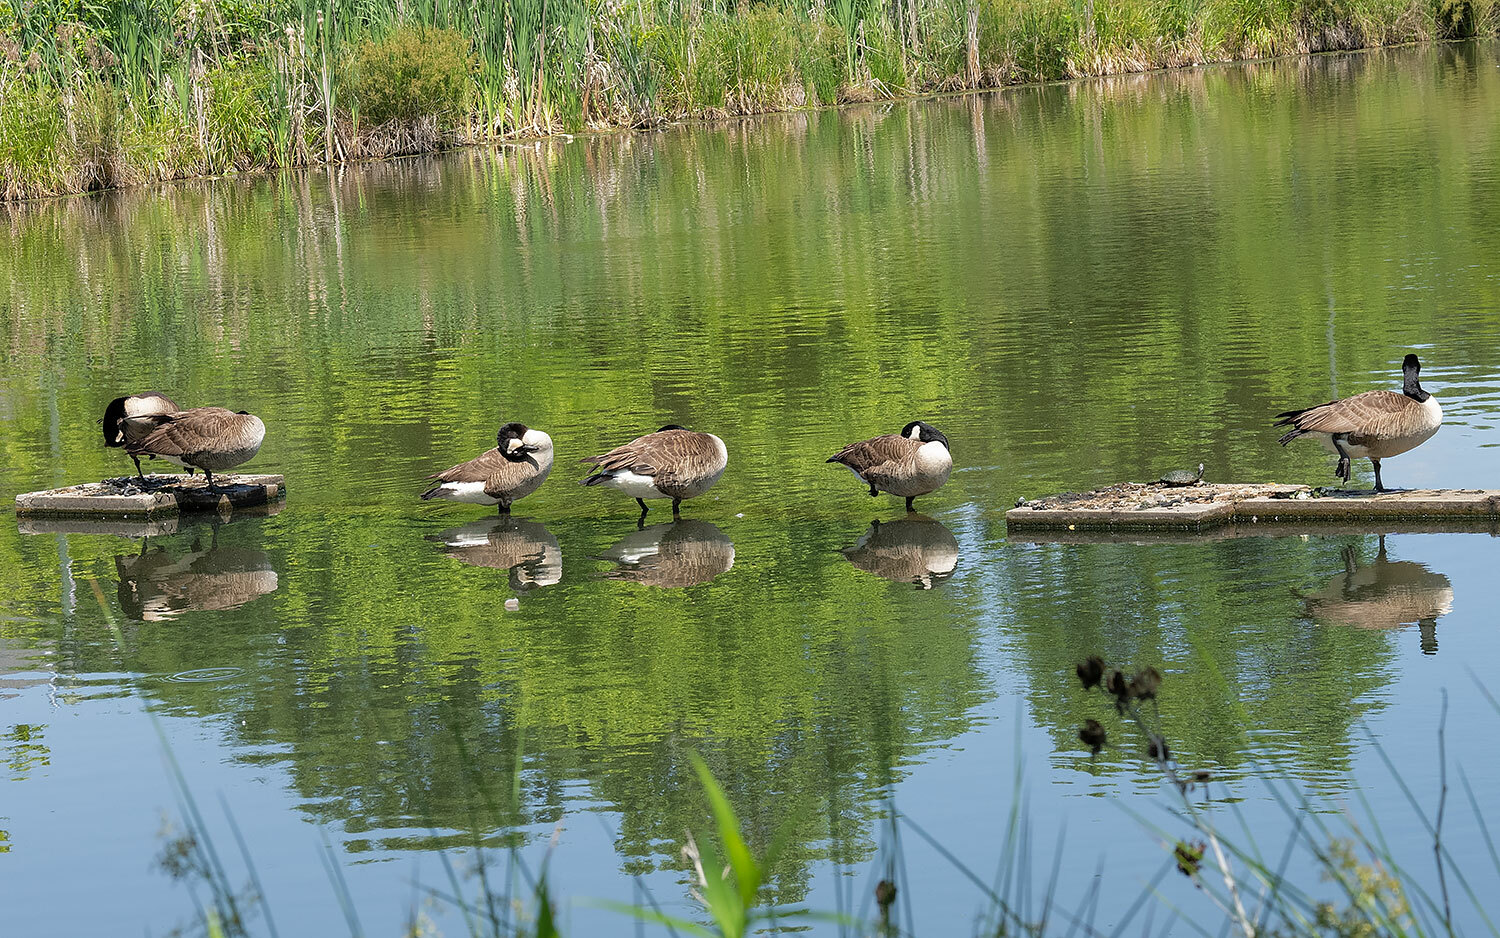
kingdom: Animalia
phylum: Chordata
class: Aves
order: Anseriformes
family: Anatidae
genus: Branta
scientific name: Branta canadensis
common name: Canada goose
